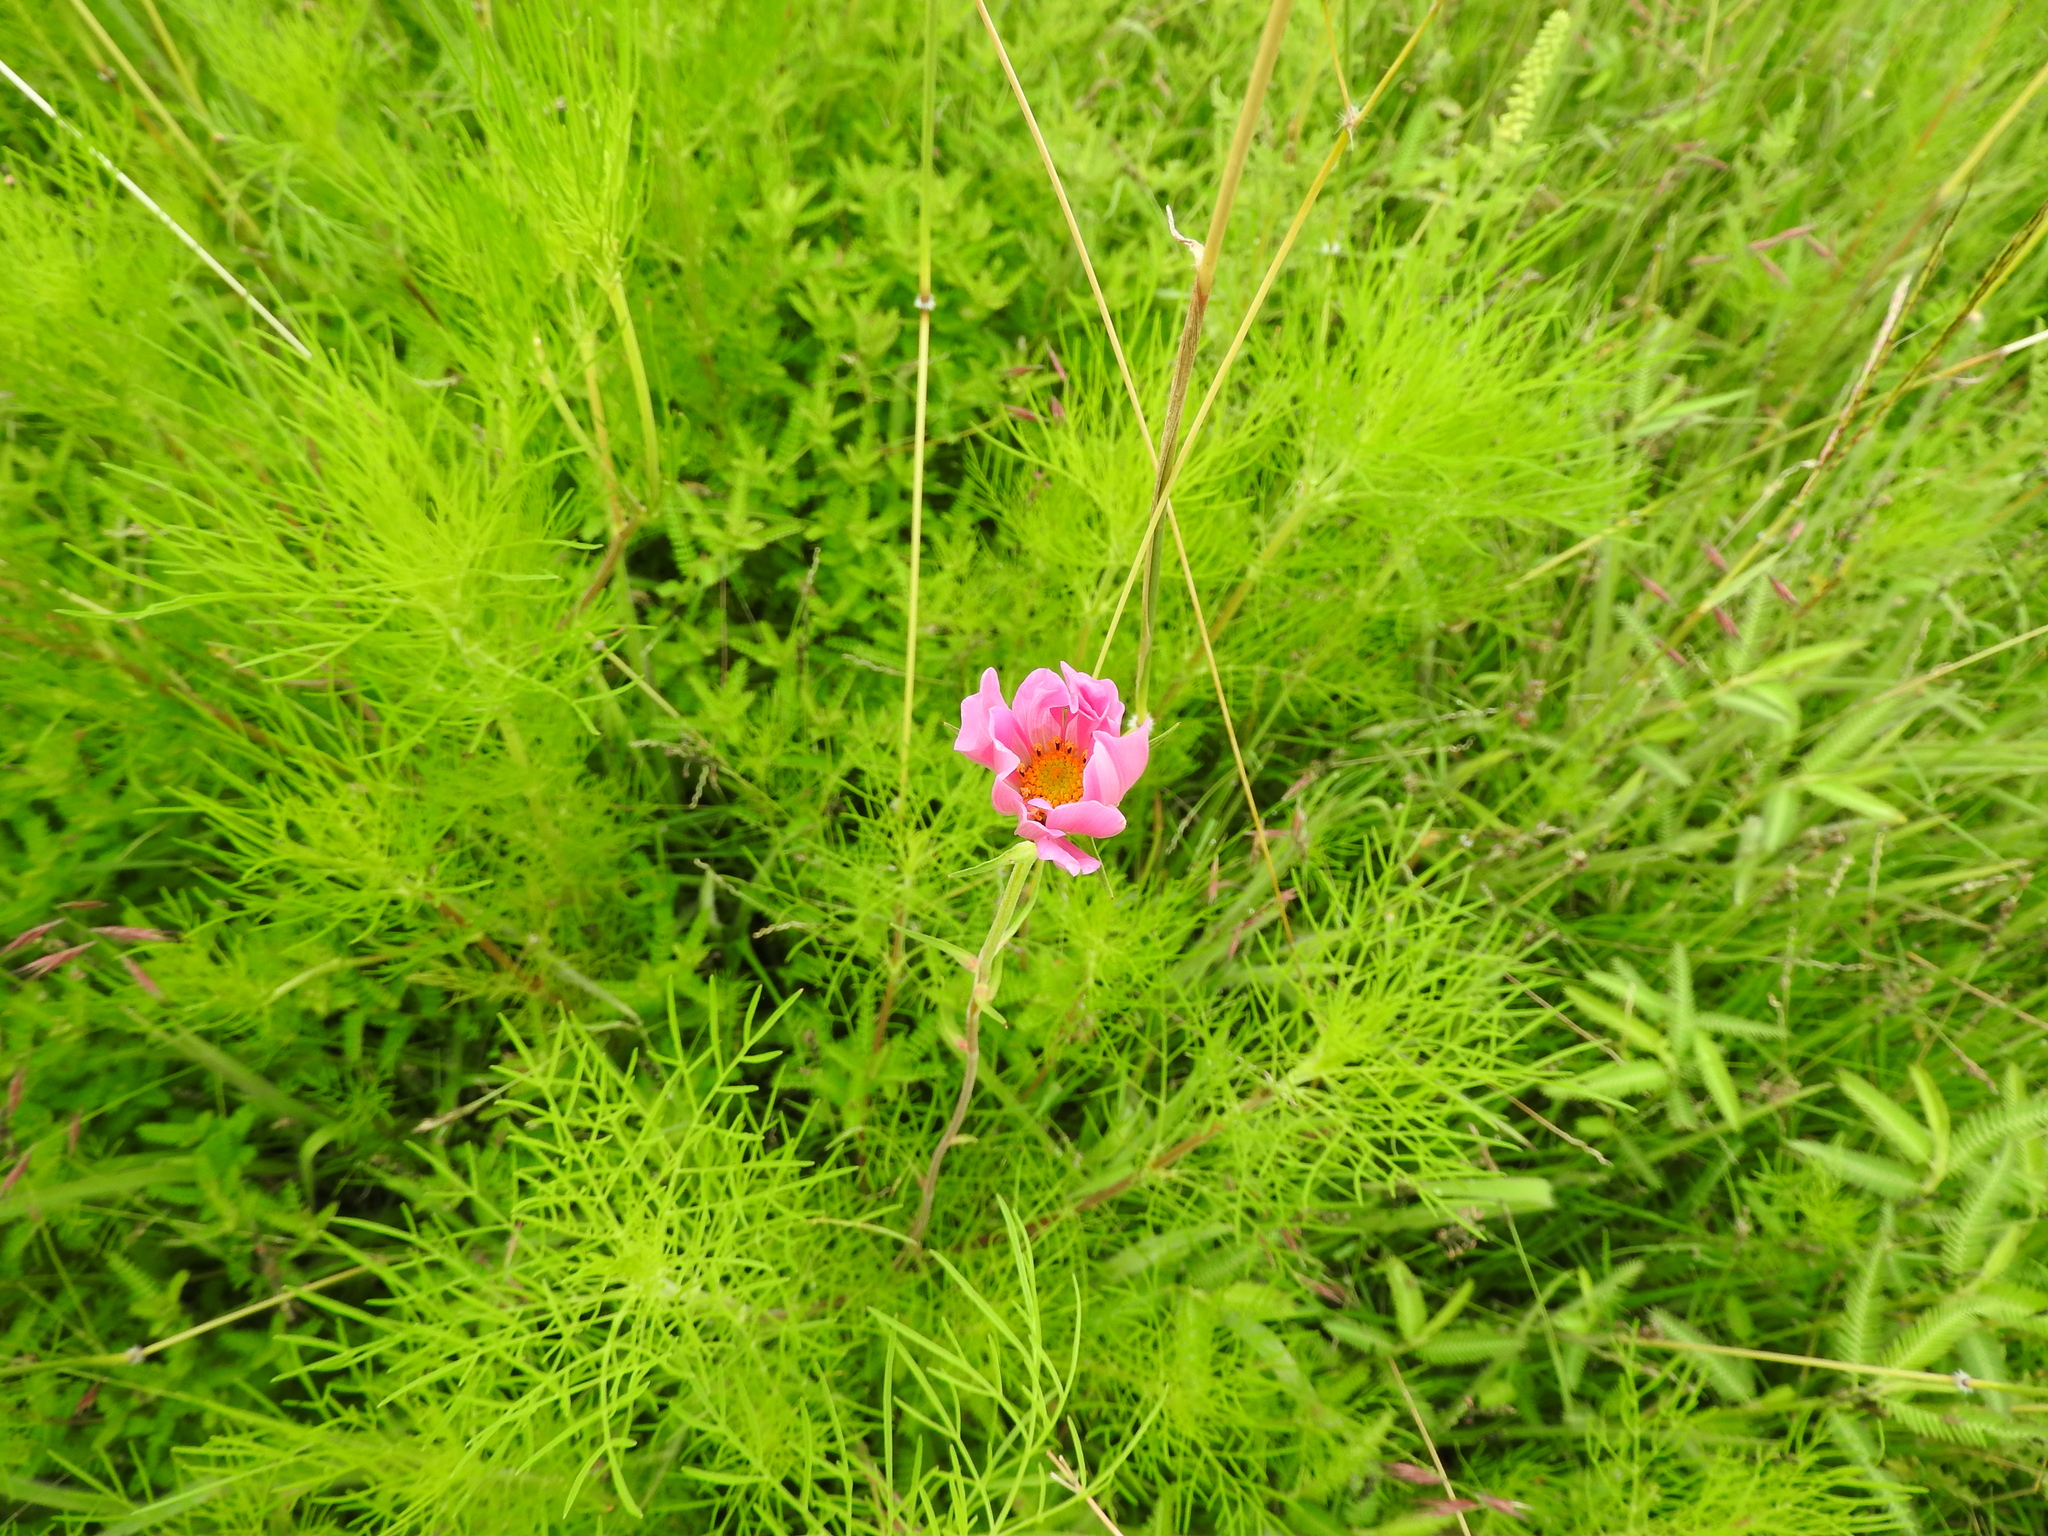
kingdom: Plantae
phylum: Tracheophyta
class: Magnoliopsida
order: Asterales
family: Asteraceae
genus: Cosmos
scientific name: Cosmos bipinnatus
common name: Garden cosmos
